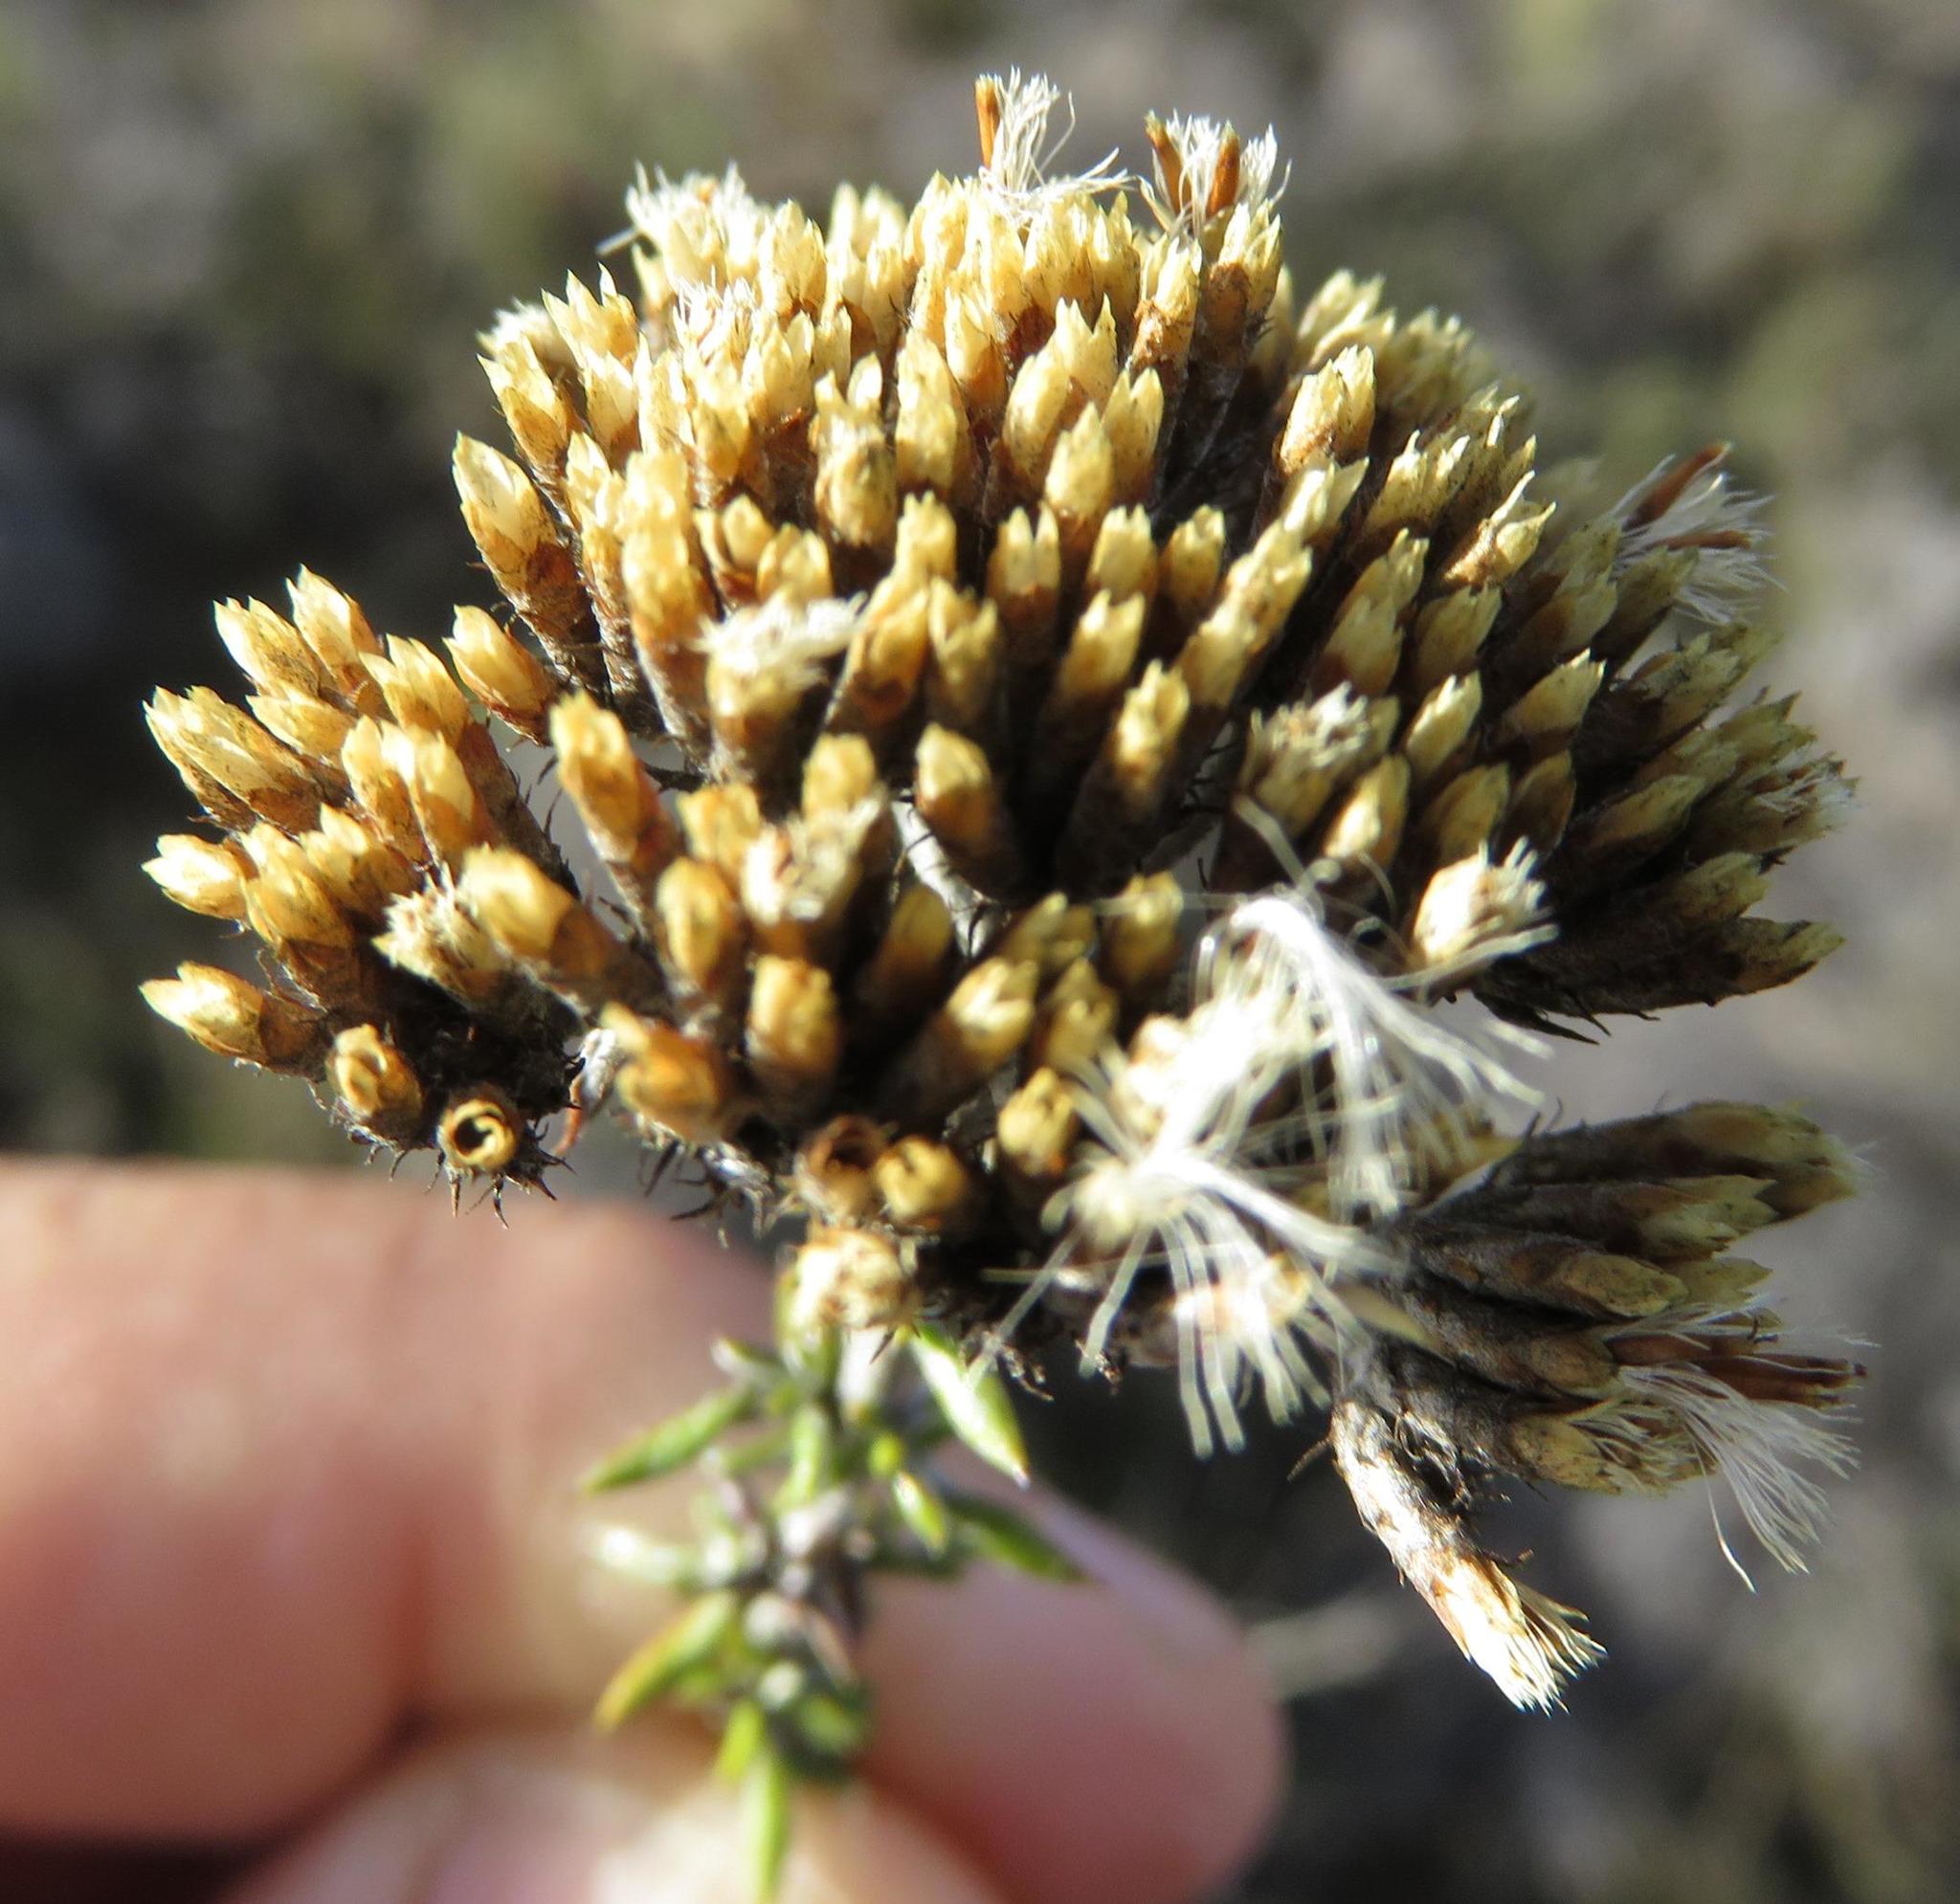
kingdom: Plantae
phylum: Tracheophyta
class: Magnoliopsida
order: Asterales
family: Asteraceae
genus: Metalasia
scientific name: Metalasia densa
